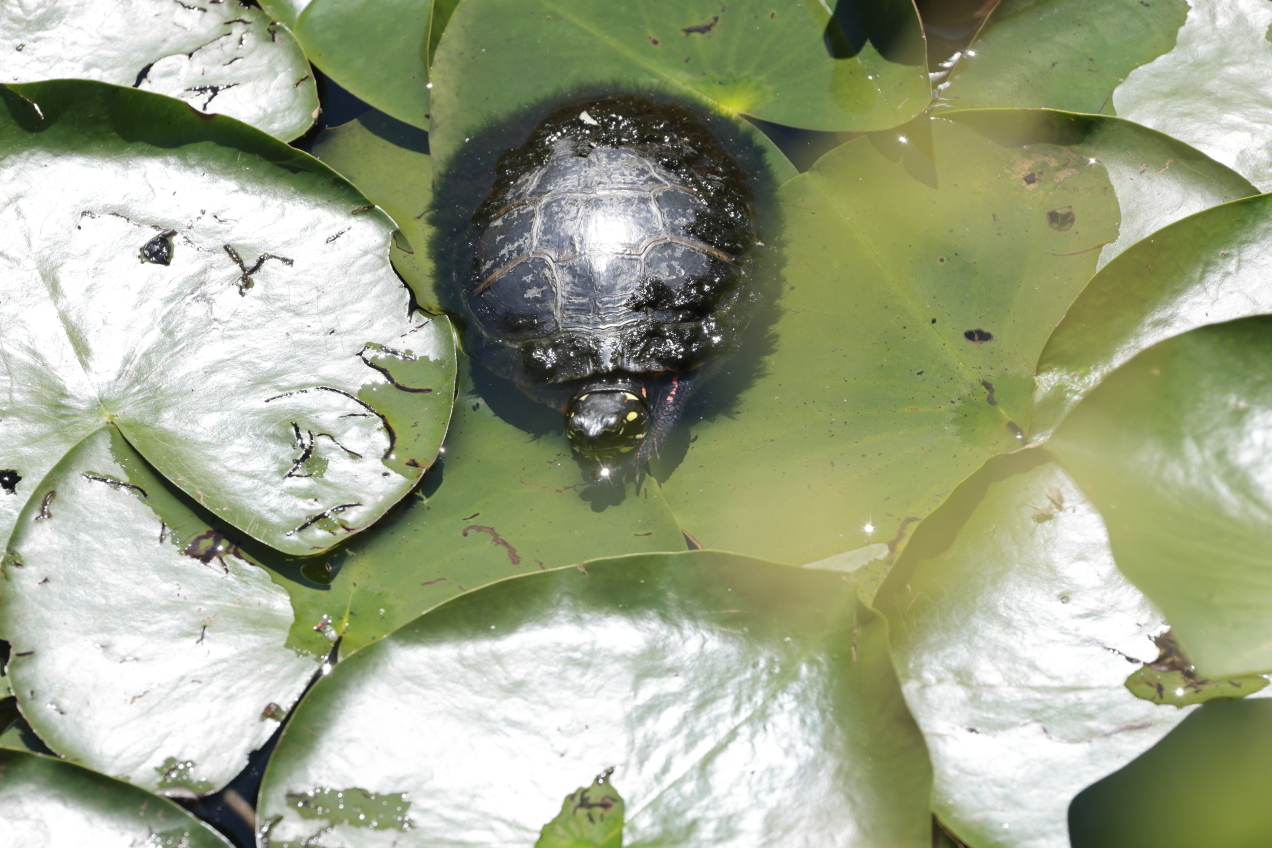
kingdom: Animalia
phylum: Chordata
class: Testudines
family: Emydidae
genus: Chrysemys
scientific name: Chrysemys picta
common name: Painted turtle
